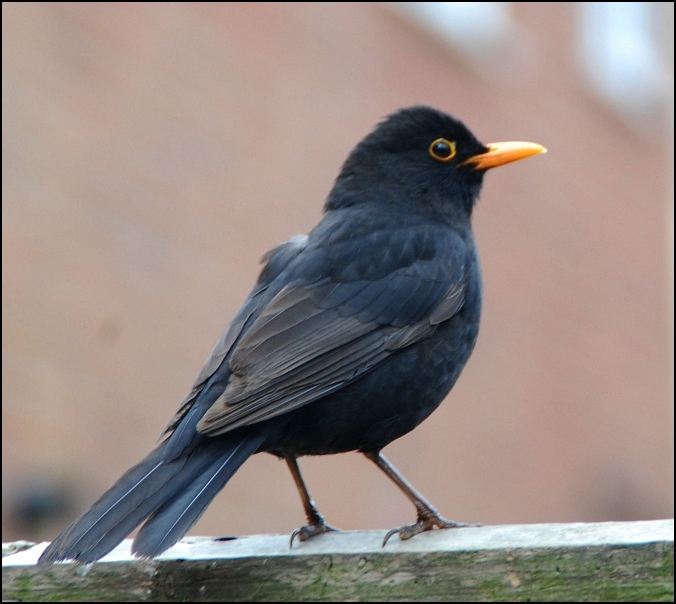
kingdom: Animalia
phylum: Chordata
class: Aves
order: Passeriformes
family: Turdidae
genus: Turdus
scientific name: Turdus merula
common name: Common blackbird
